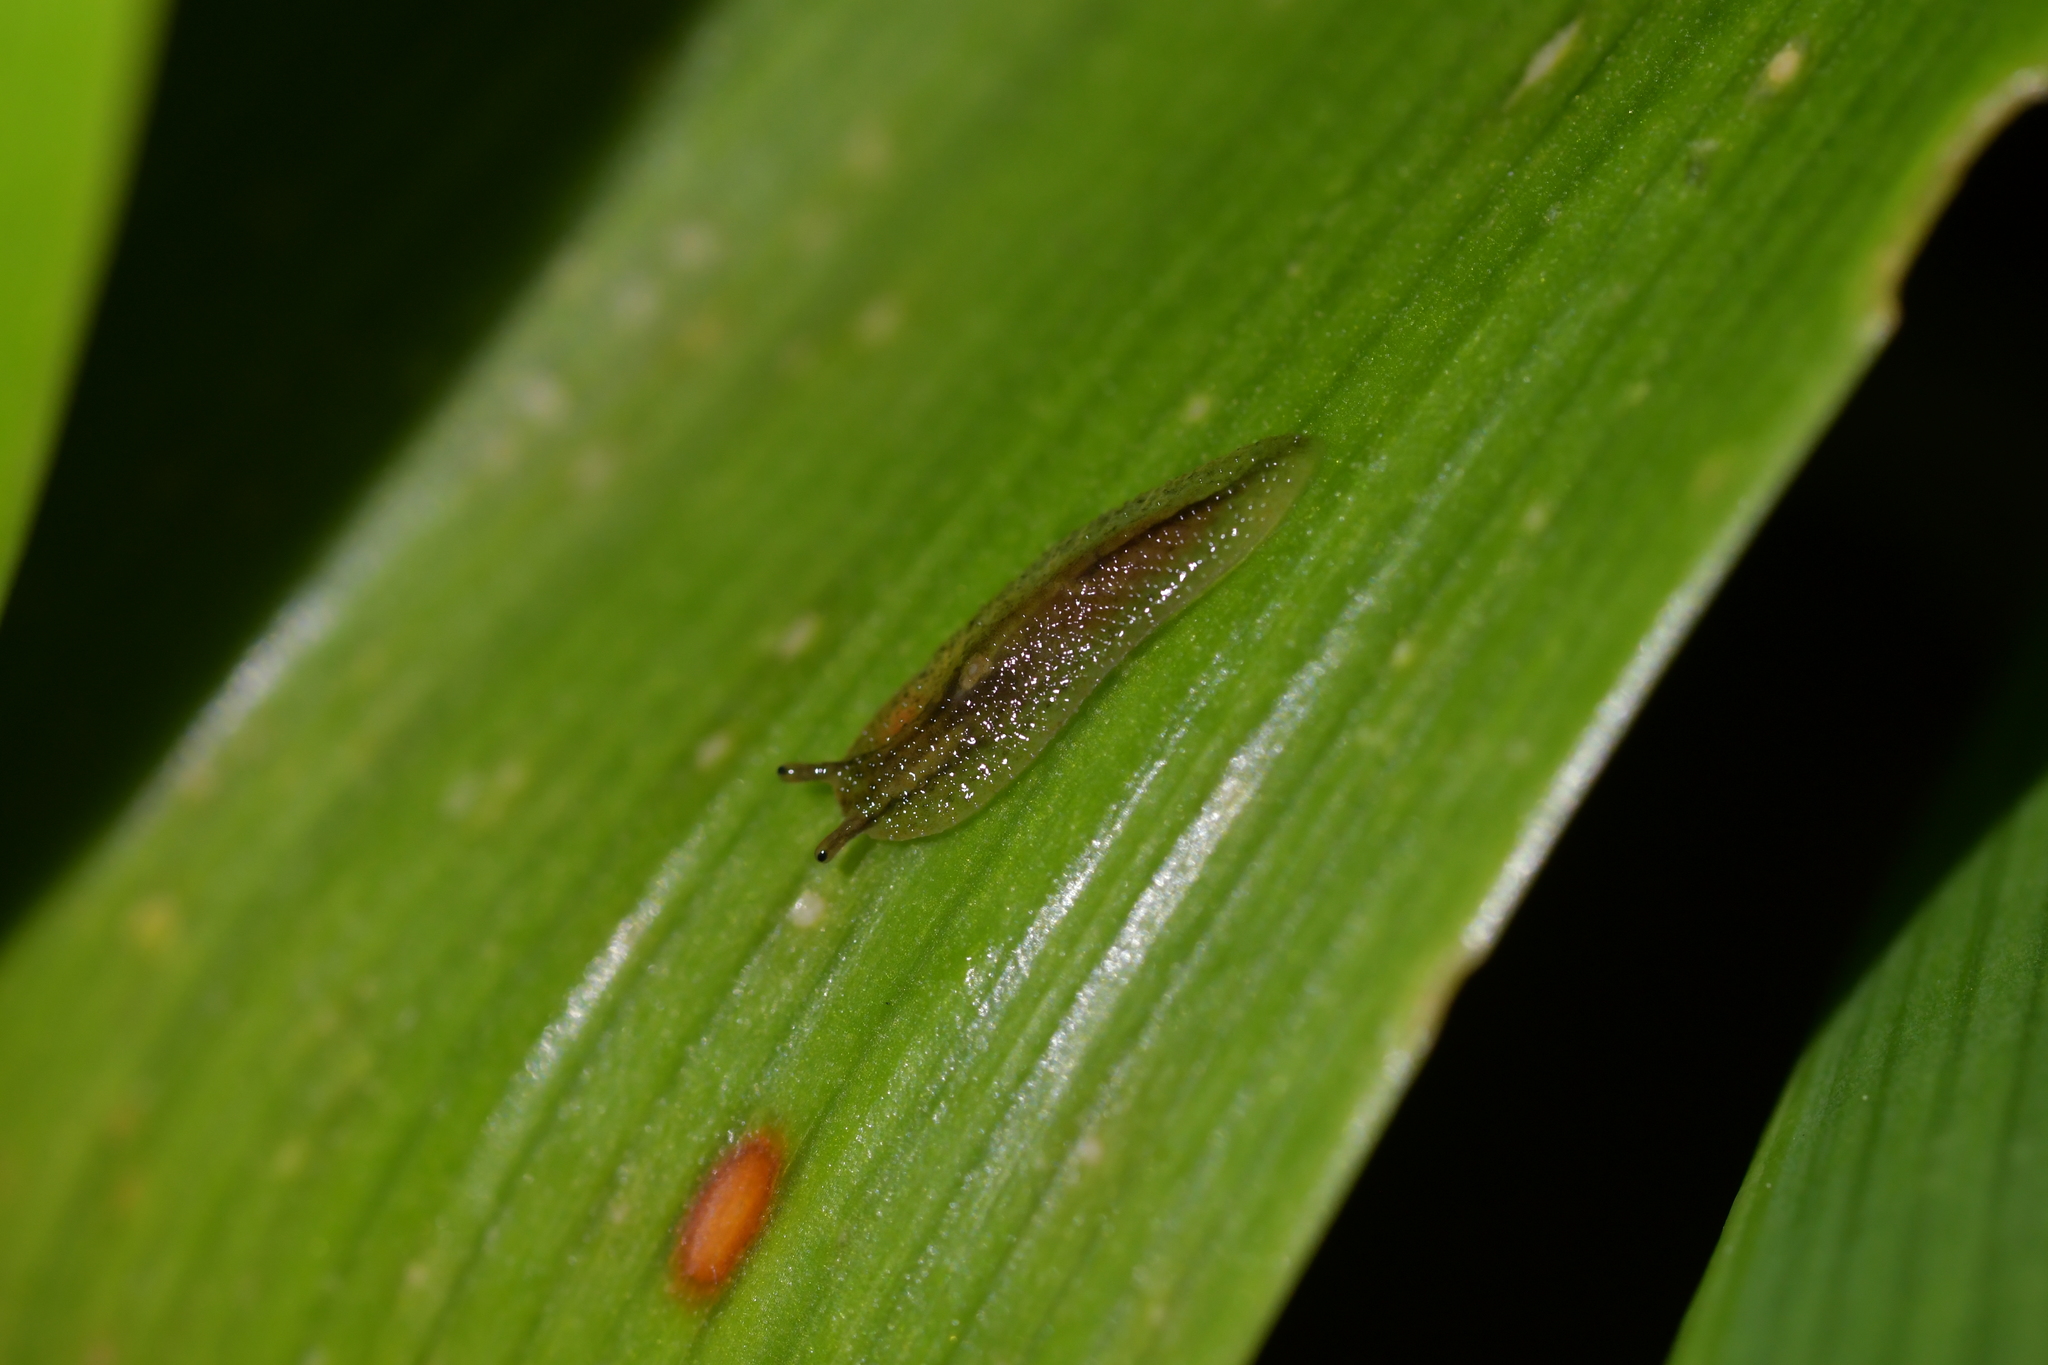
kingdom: Animalia
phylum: Mollusca
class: Gastropoda
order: Stylommatophora
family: Athoracophoridae
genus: Athoracophorus
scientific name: Athoracophorus bitentaculatus
